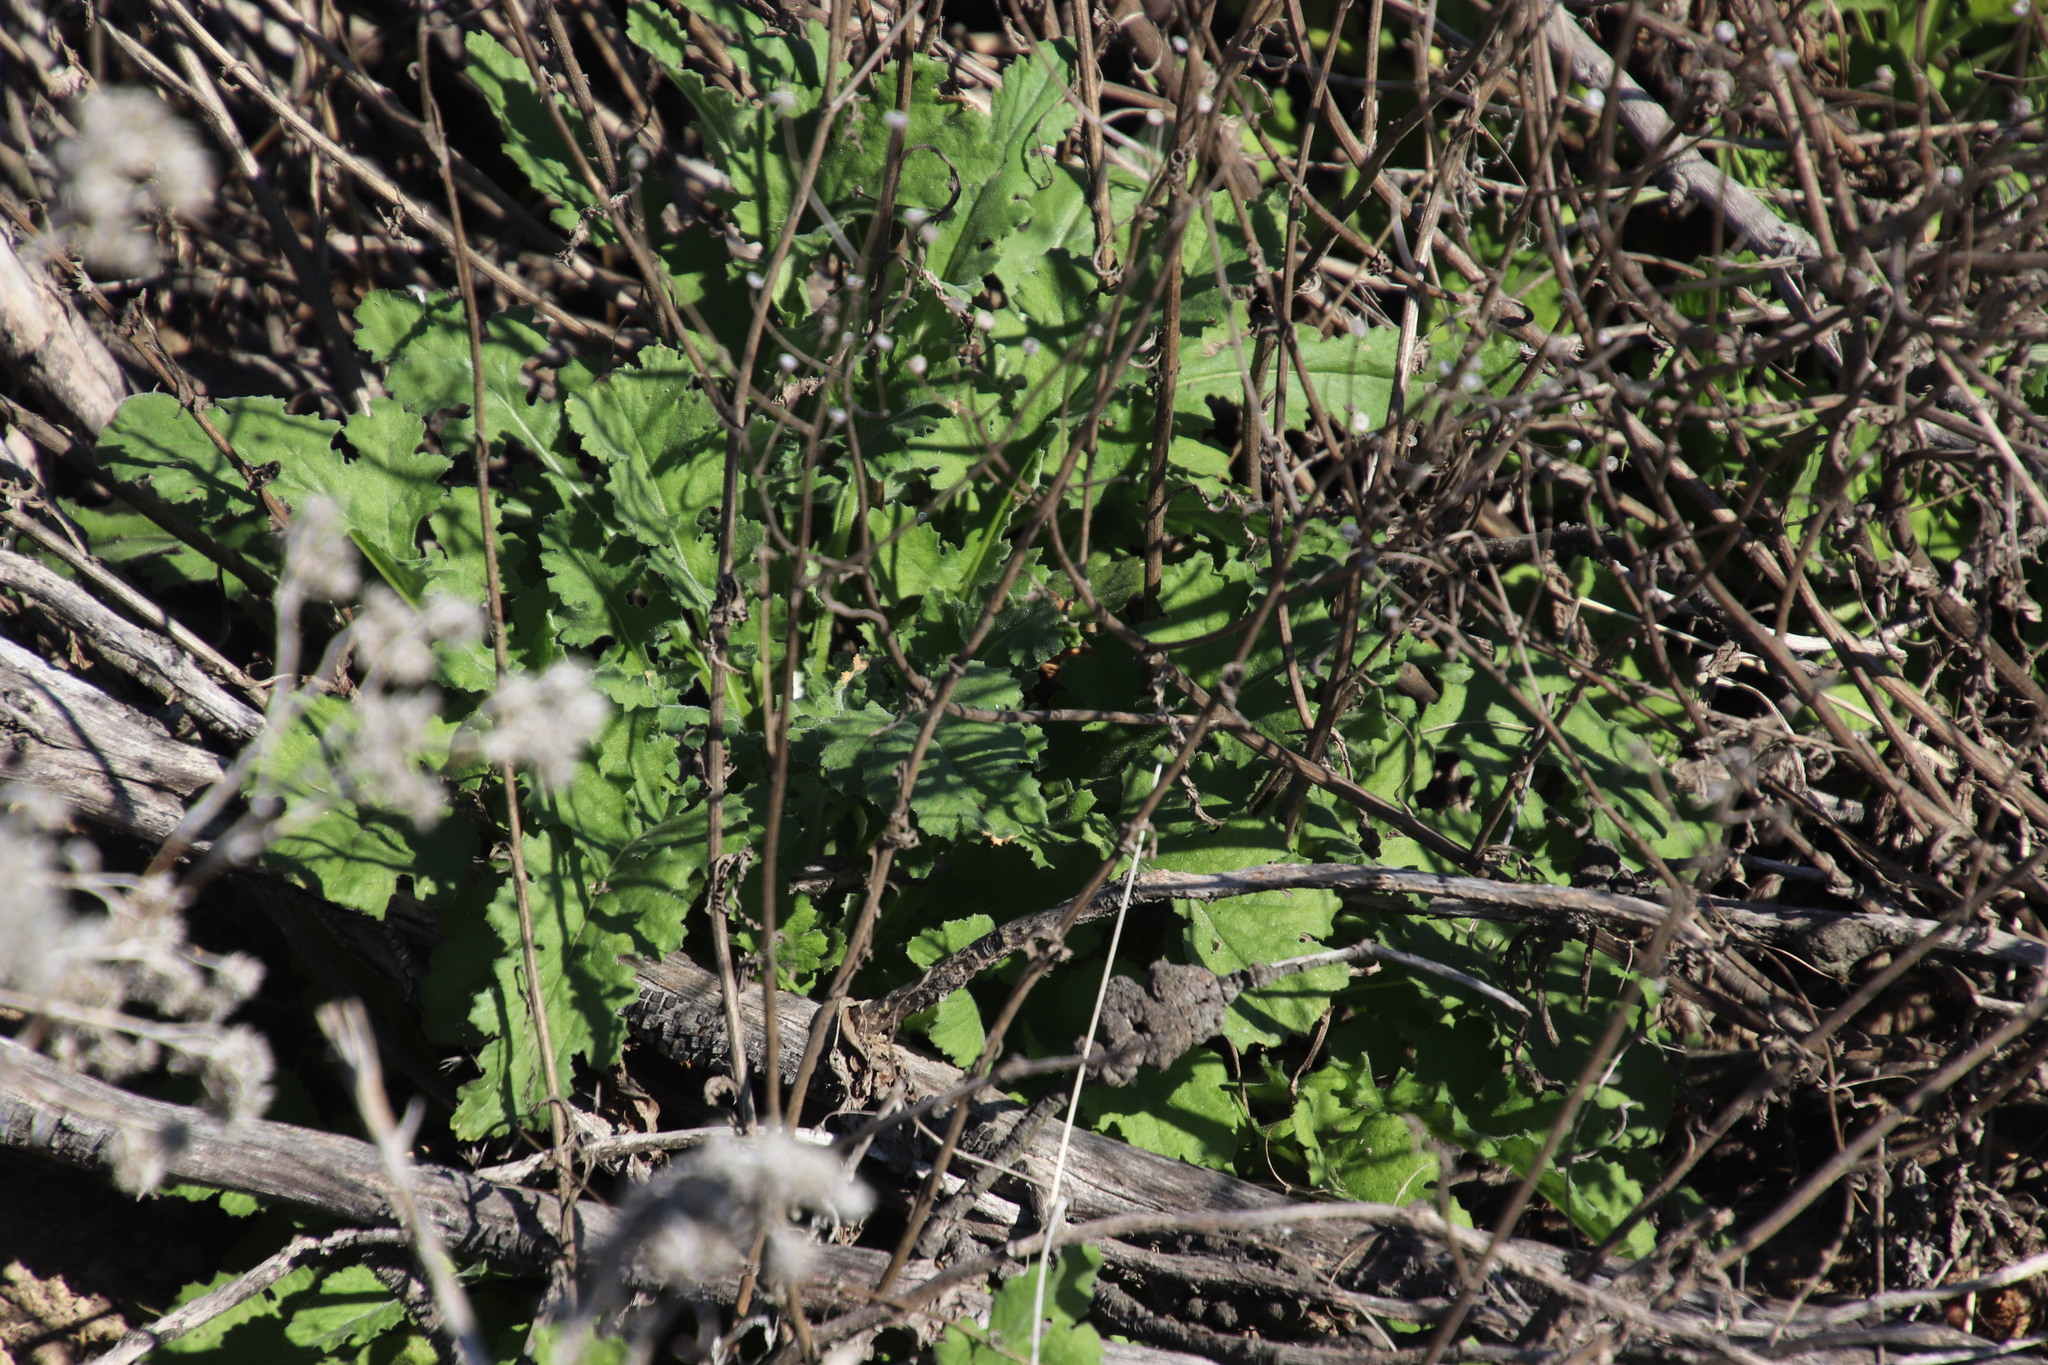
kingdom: Plantae
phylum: Tracheophyta
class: Magnoliopsida
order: Asterales
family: Asteraceae
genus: Senecio
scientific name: Senecio hastatus
